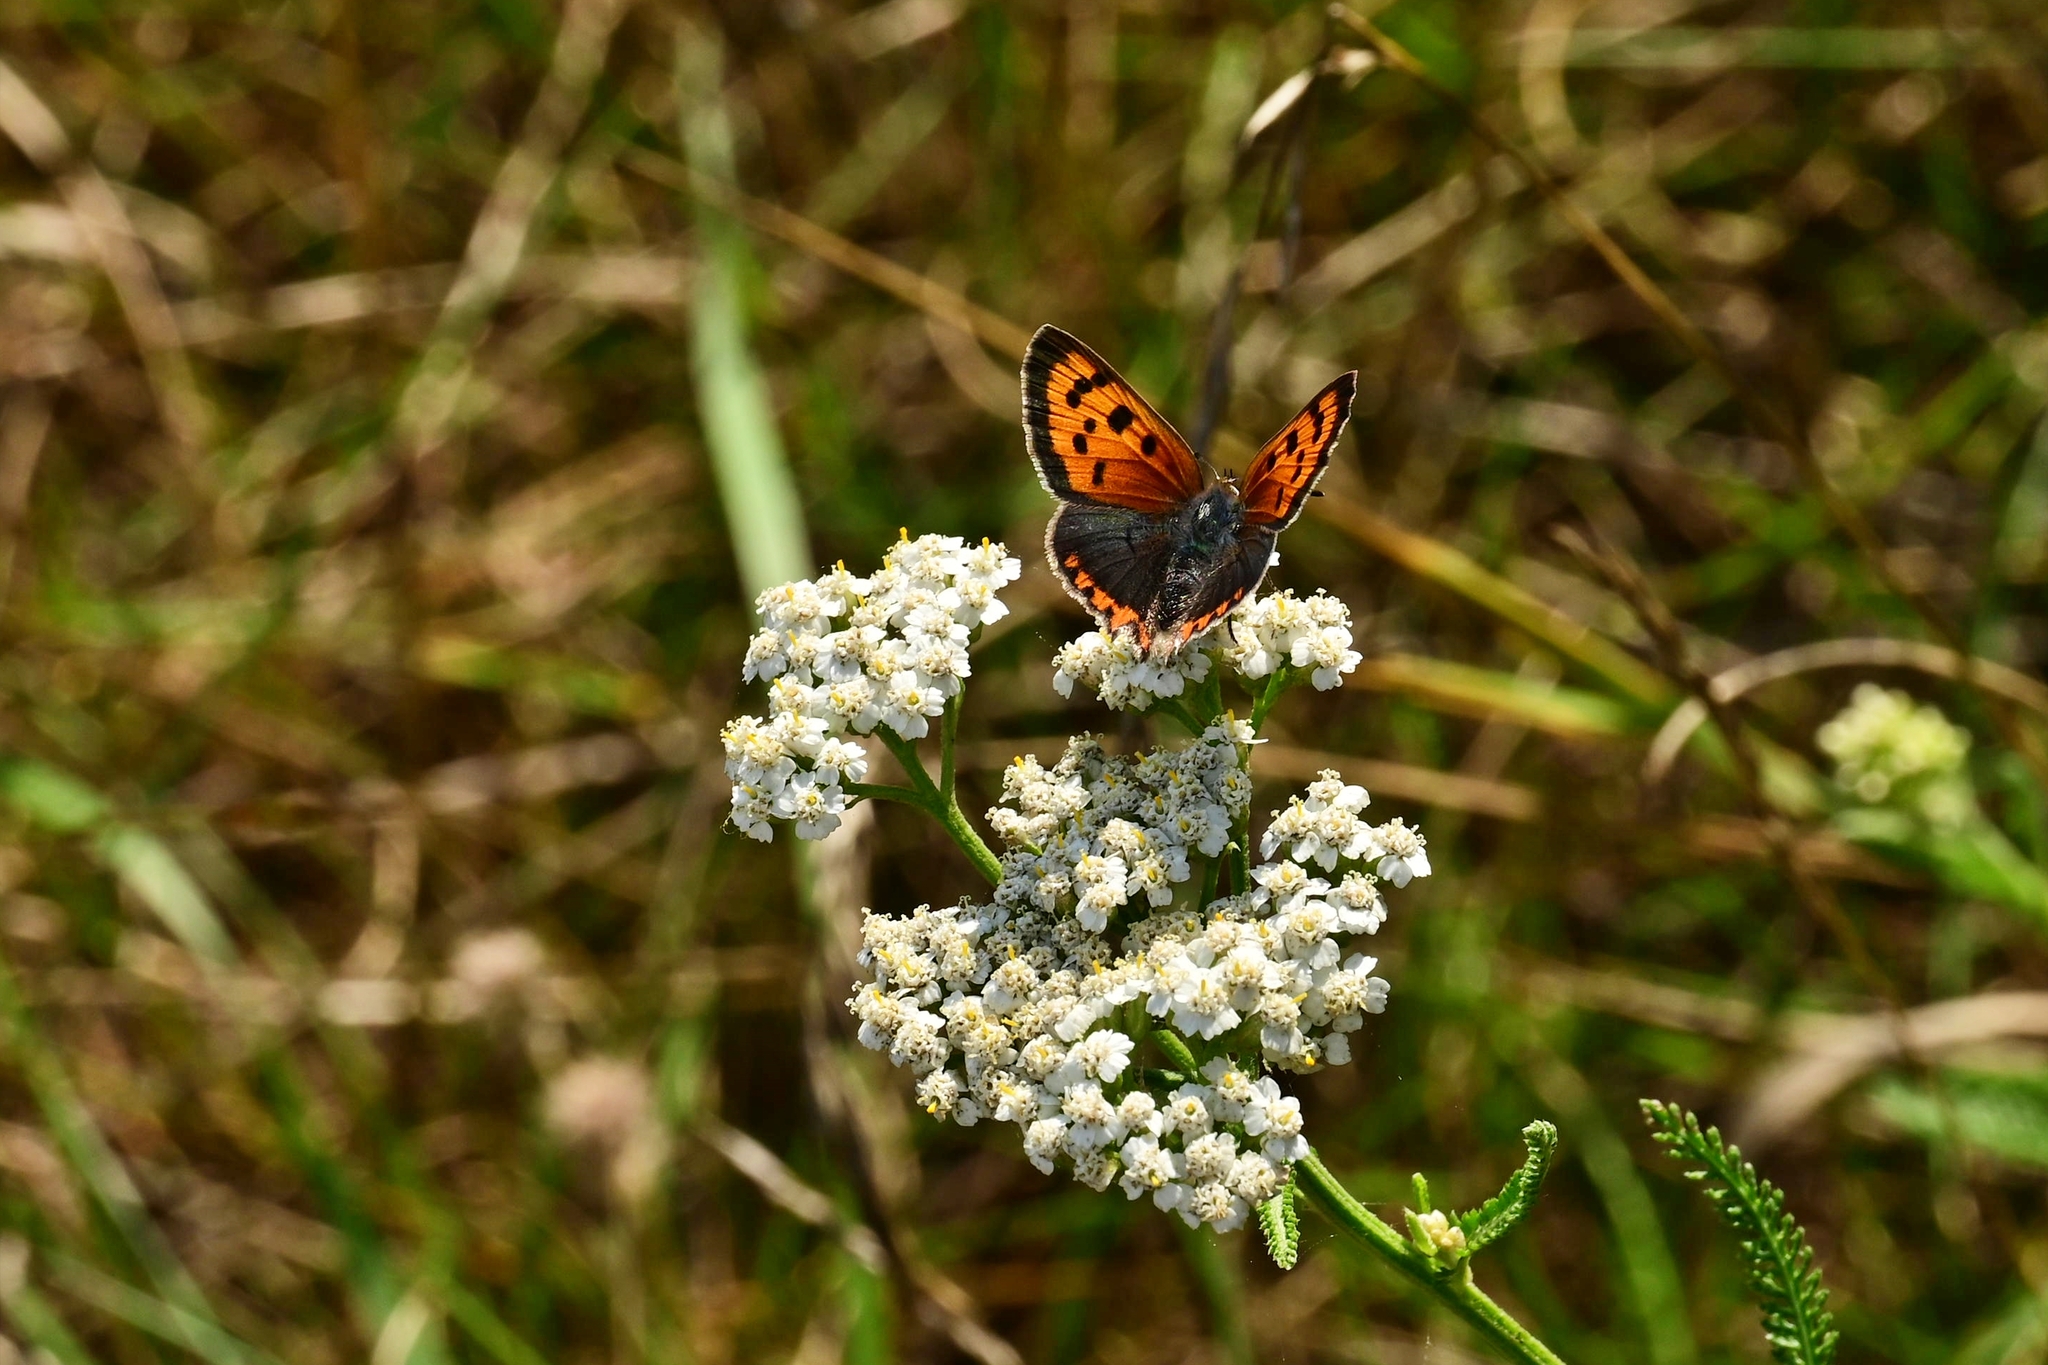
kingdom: Animalia
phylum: Arthropoda
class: Insecta
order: Lepidoptera
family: Lycaenidae
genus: Lycaena
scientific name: Lycaena phlaeas
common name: Small copper
